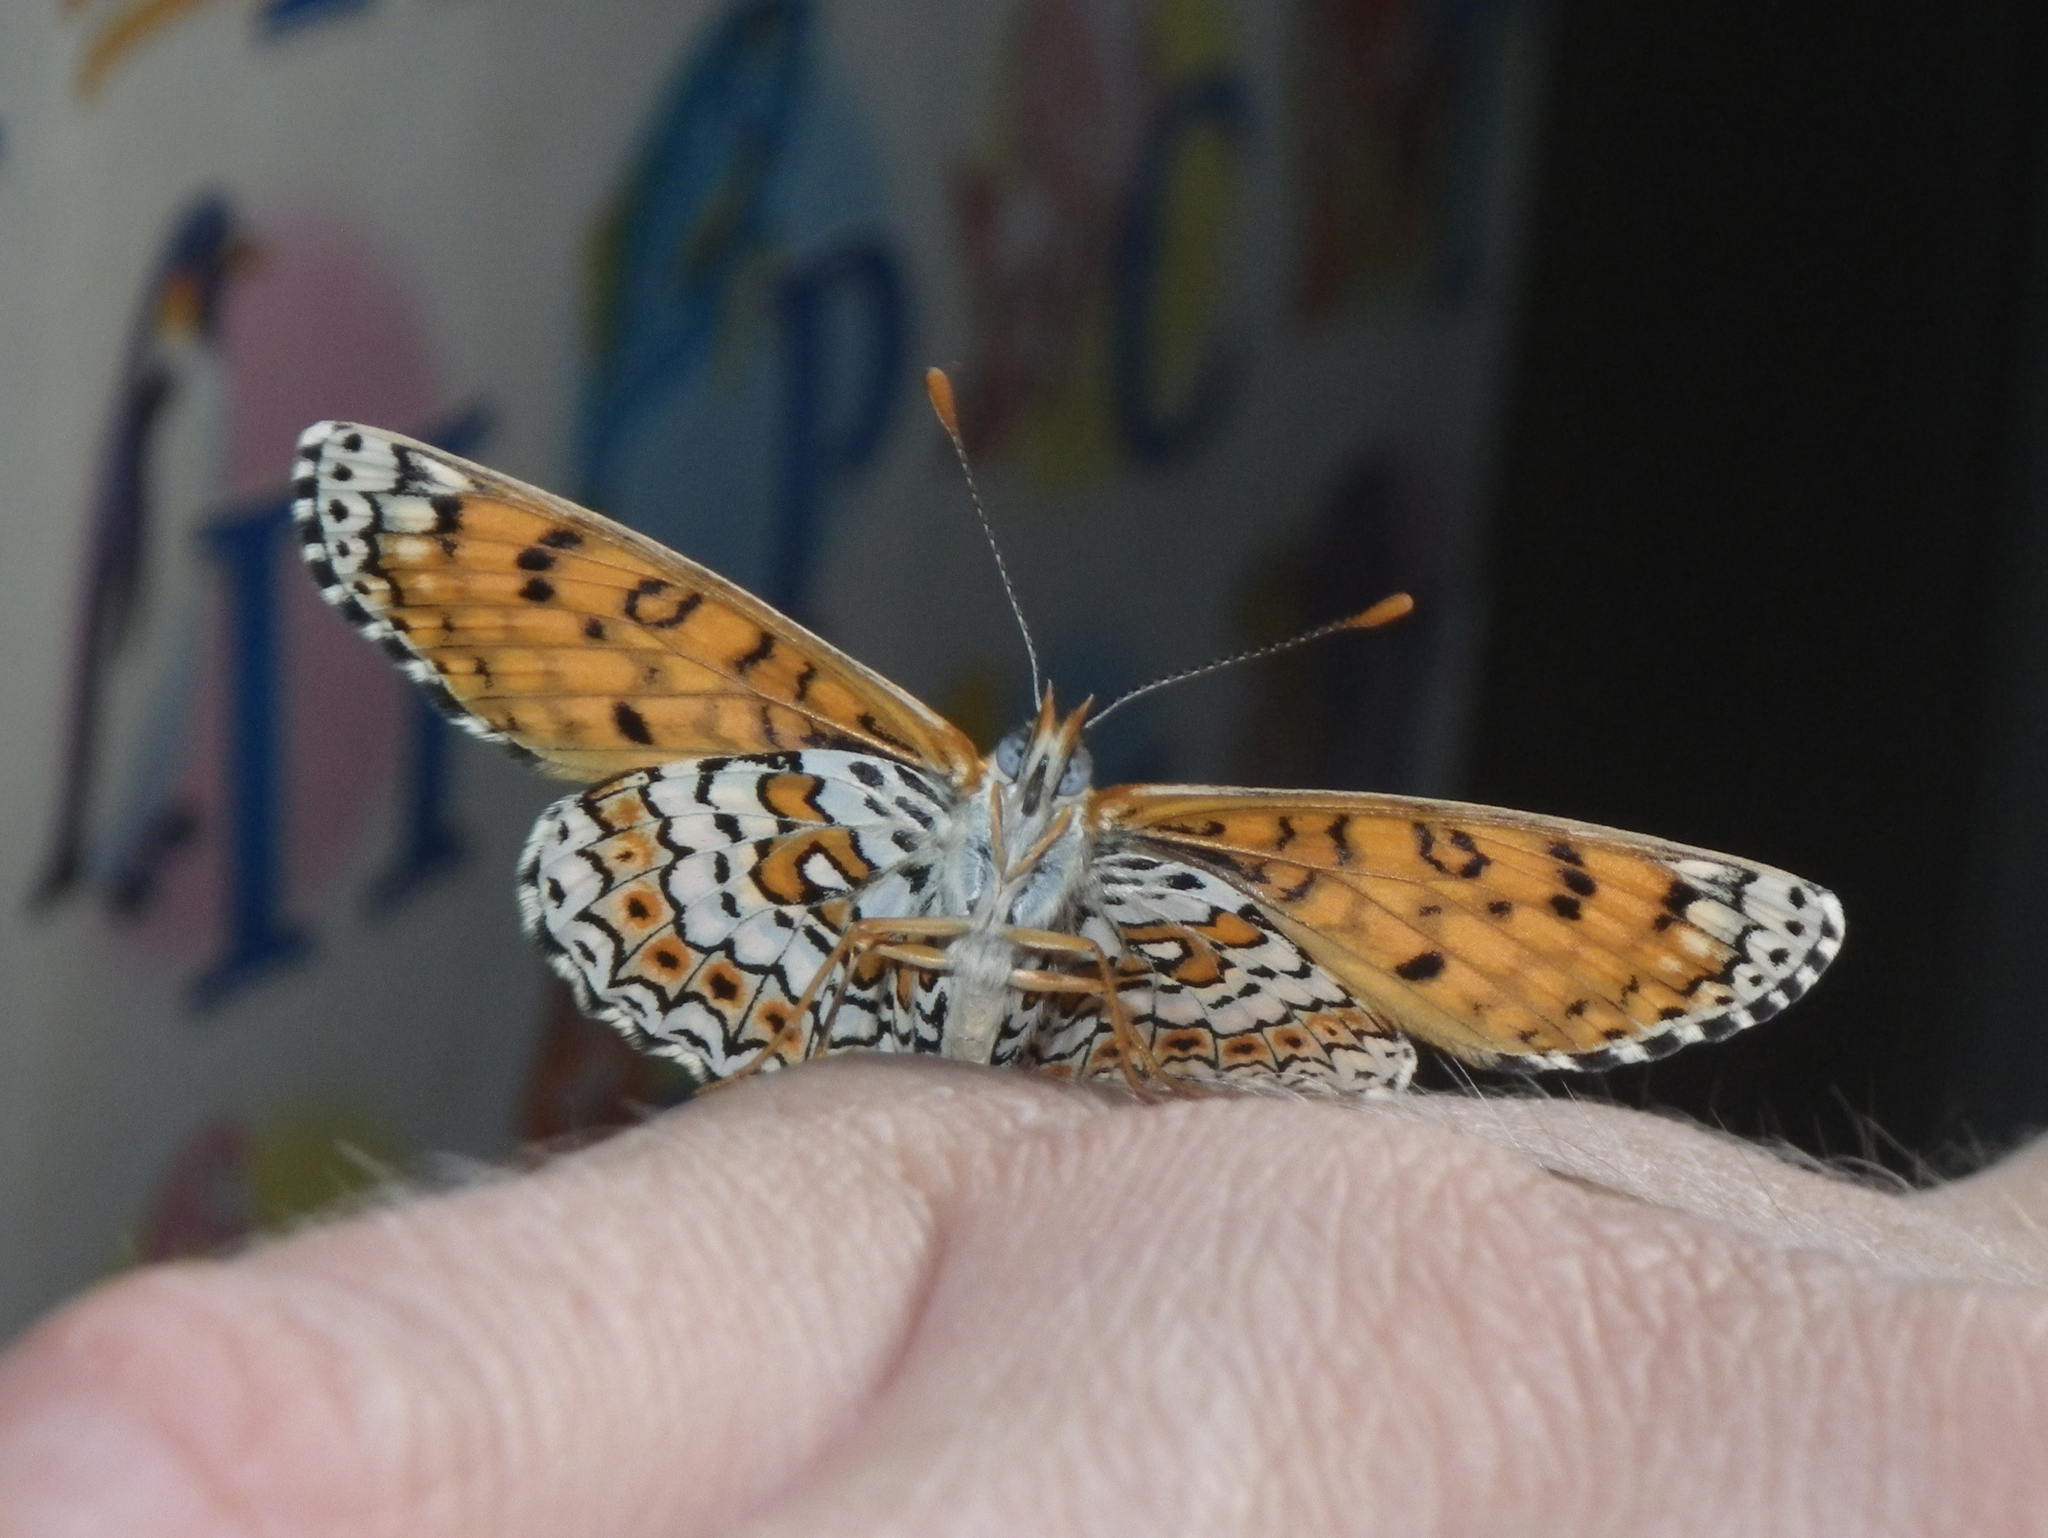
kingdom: Animalia
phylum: Arthropoda
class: Insecta
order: Lepidoptera
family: Nymphalidae
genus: Melitaea
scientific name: Melitaea cinxia
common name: Glanville fritillary
